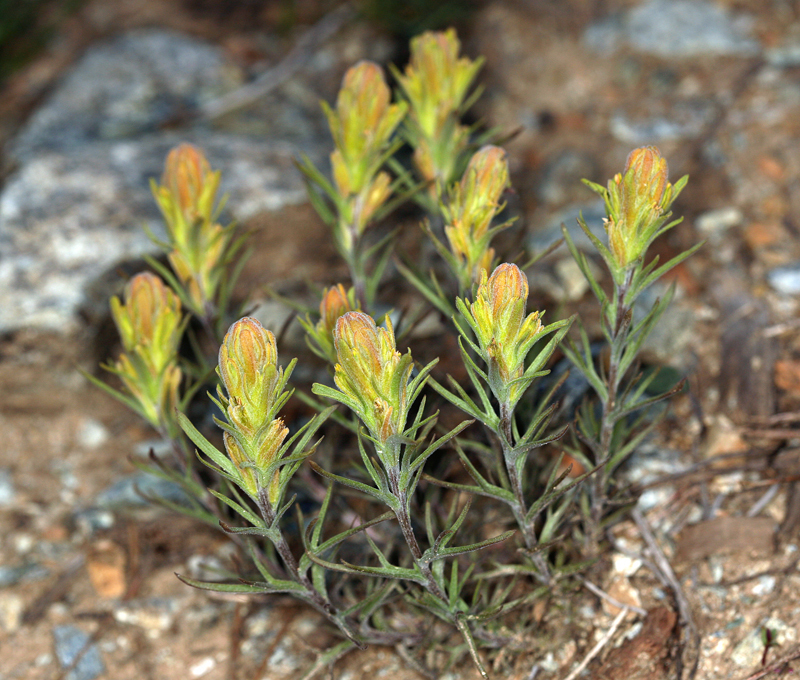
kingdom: Plantae
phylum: Tracheophyta
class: Magnoliopsida
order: Lamiales
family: Orobanchaceae
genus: Castilleja
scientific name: Castilleja arachnoidea
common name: Cobwebby indian paintbrush
